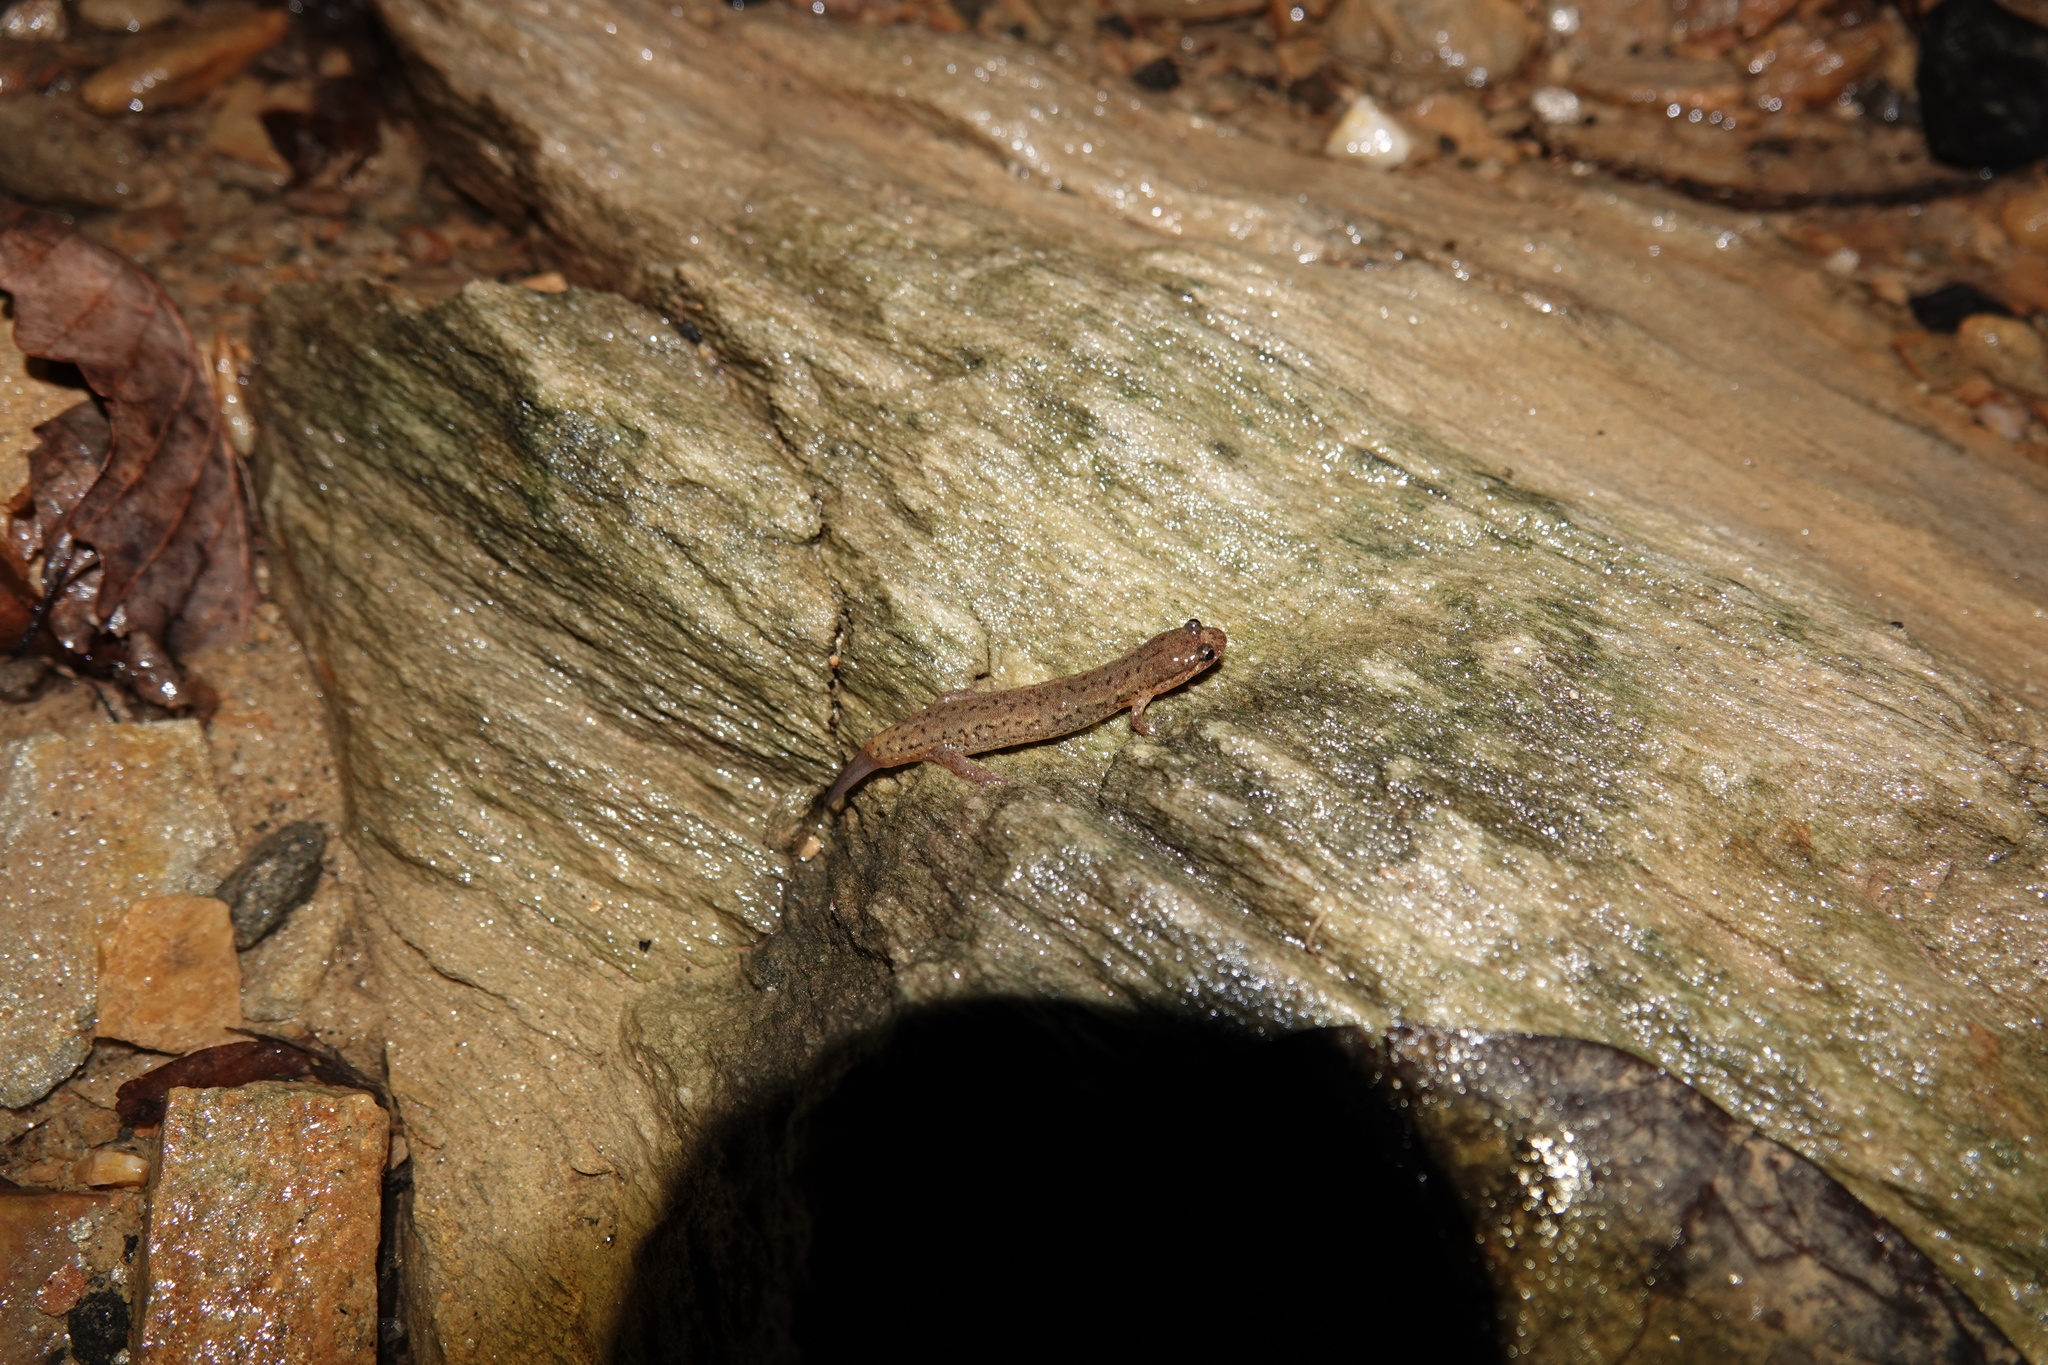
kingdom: Animalia
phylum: Chordata
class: Amphibia
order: Caudata
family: Plethodontidae
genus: Desmognathus
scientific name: Desmognathus fuscus
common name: Northern dusky salamander
